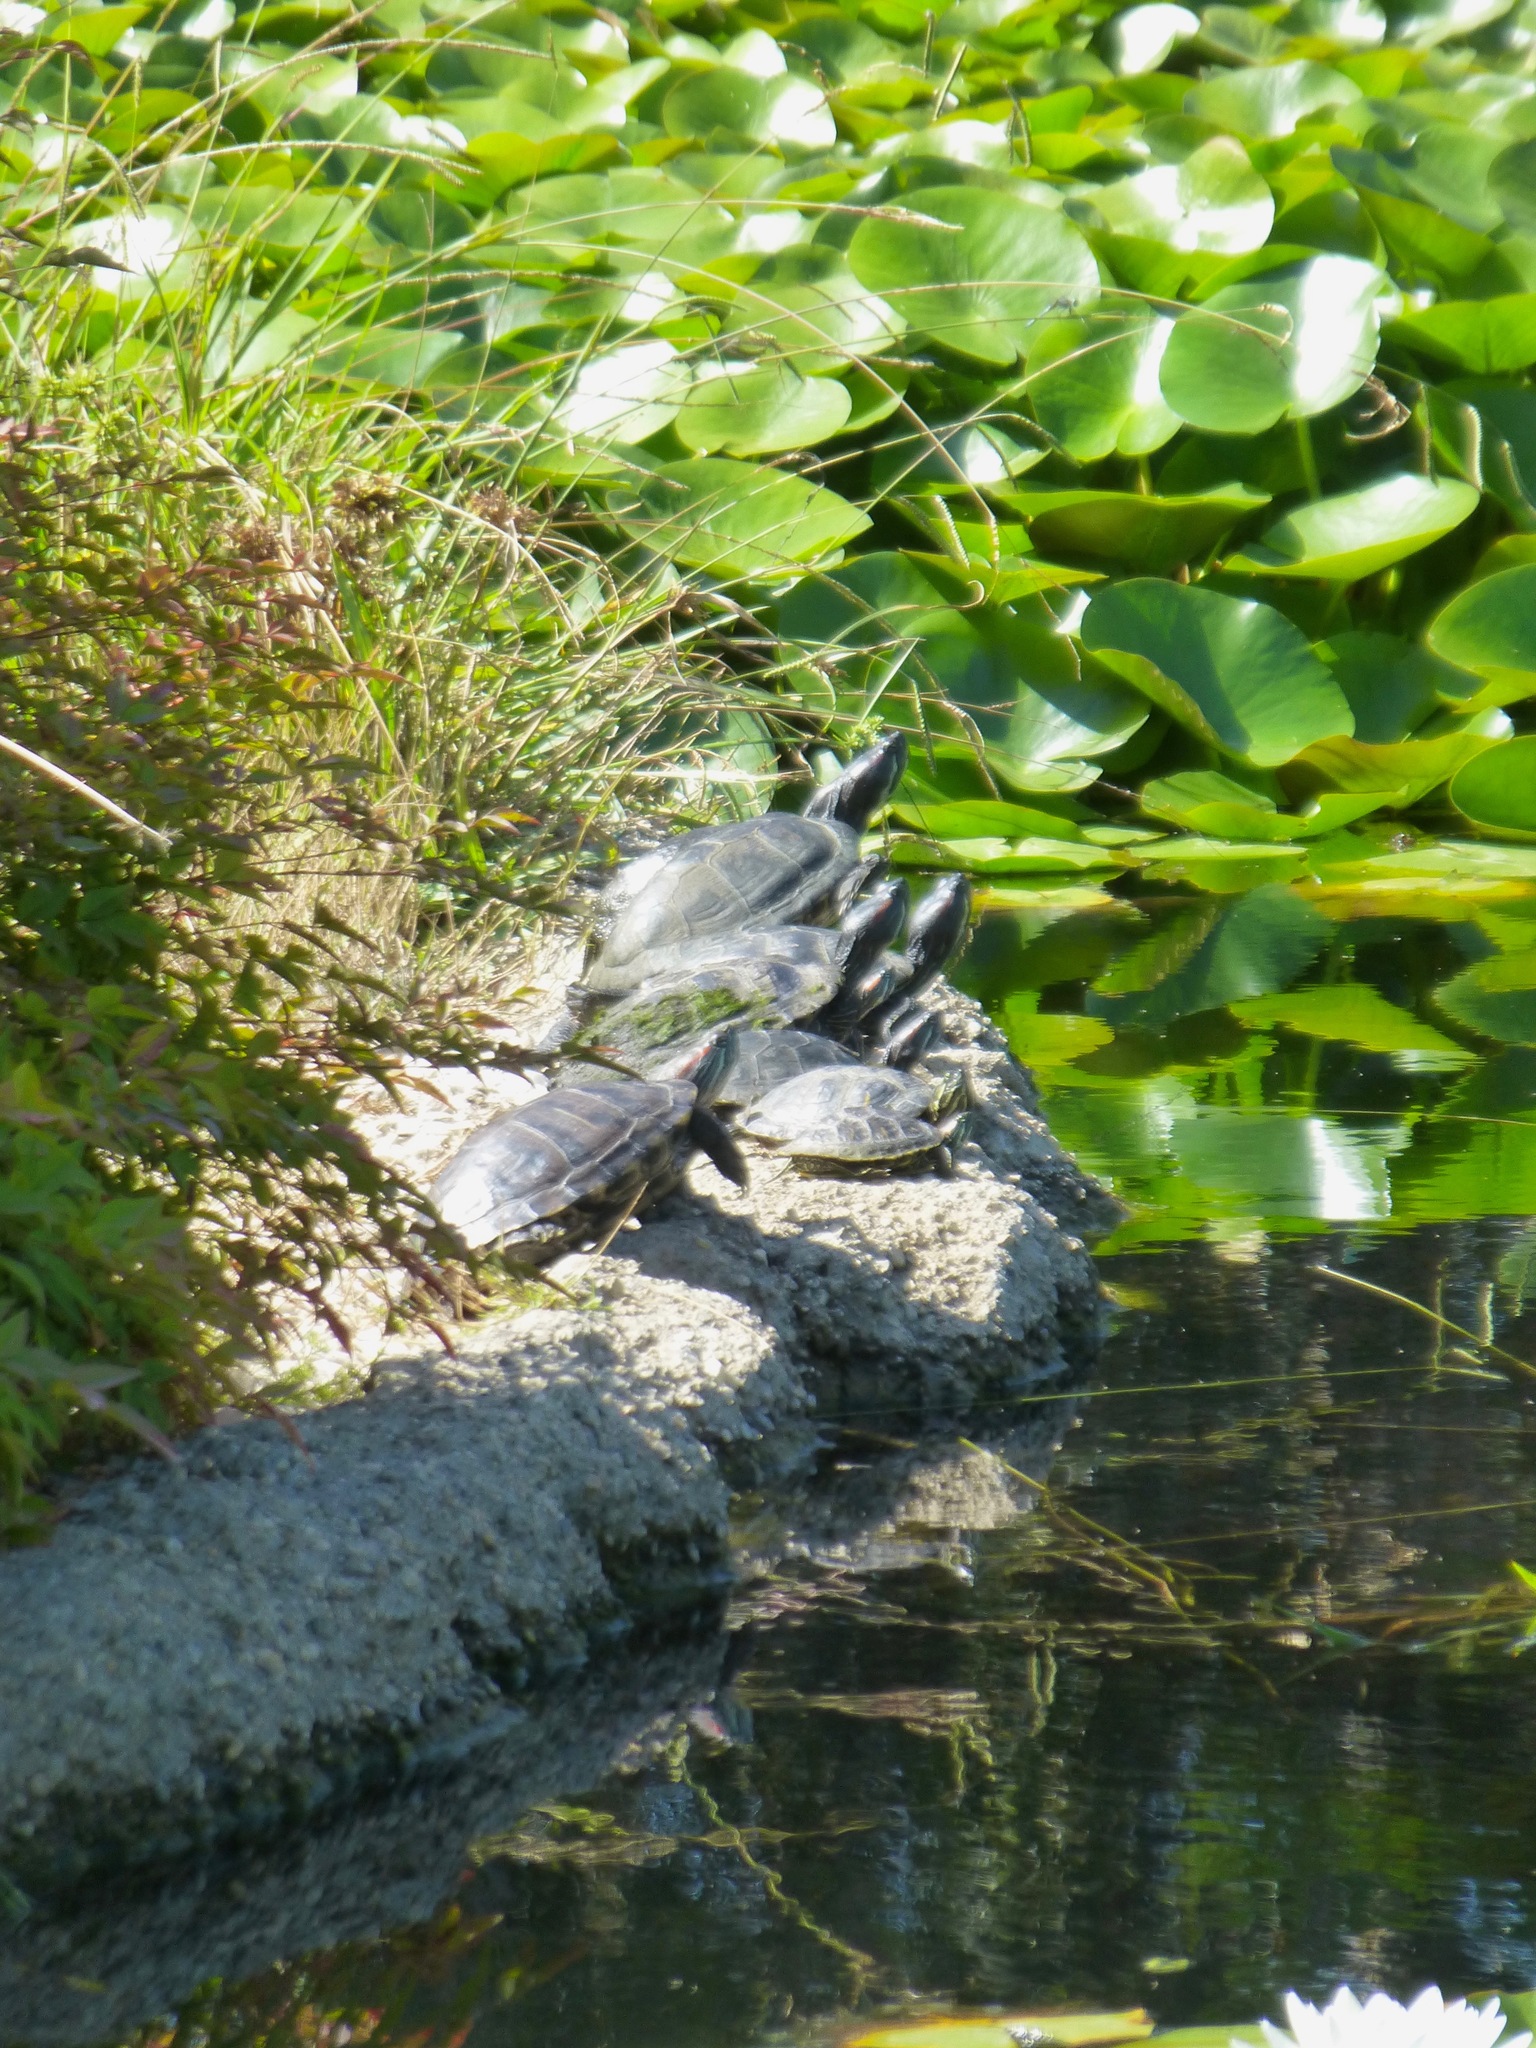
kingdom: Animalia
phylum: Chordata
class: Testudines
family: Emydidae
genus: Trachemys
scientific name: Trachemys scripta
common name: Slider
